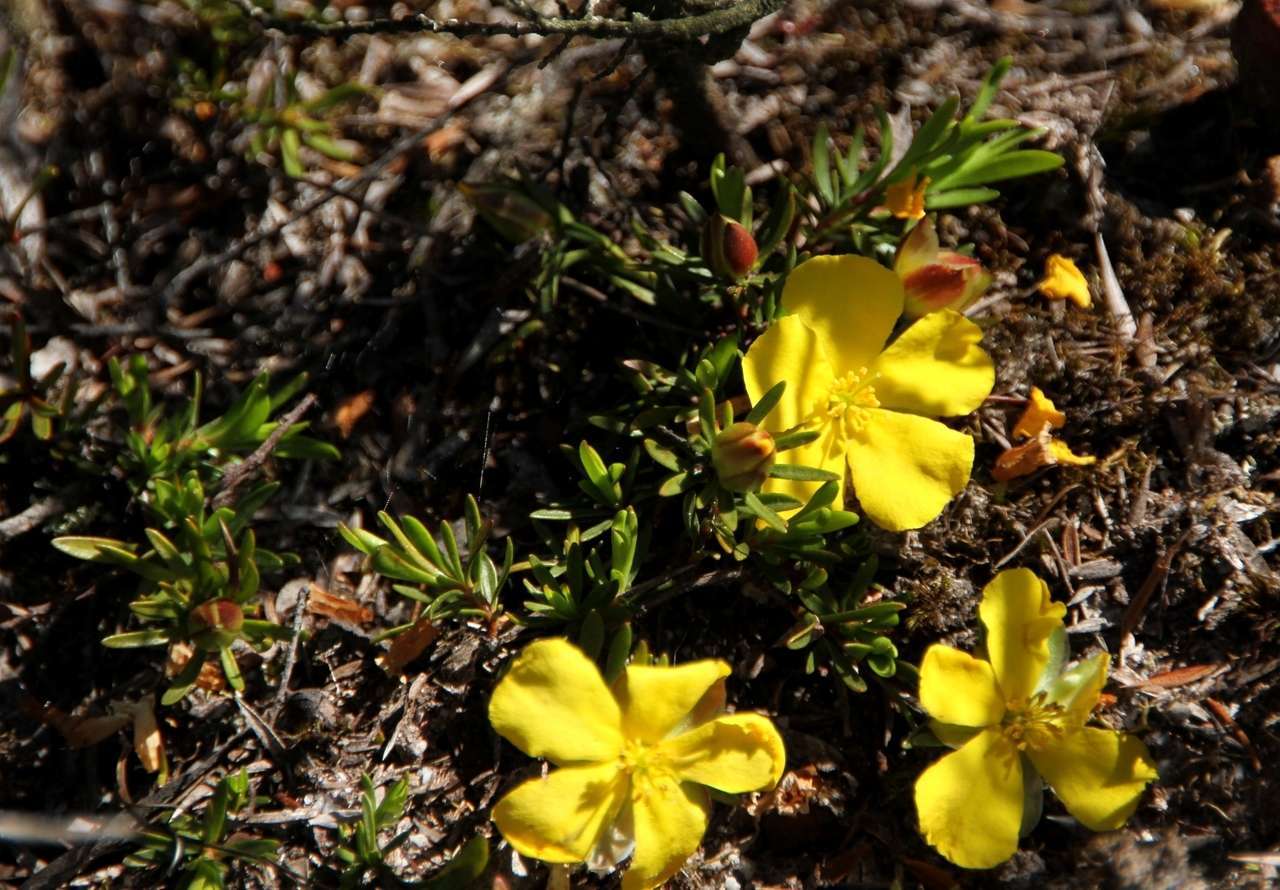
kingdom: Plantae
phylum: Tracheophyta
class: Magnoliopsida
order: Dilleniales
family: Dilleniaceae
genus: Hibbertia
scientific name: Hibbertia procumbens
